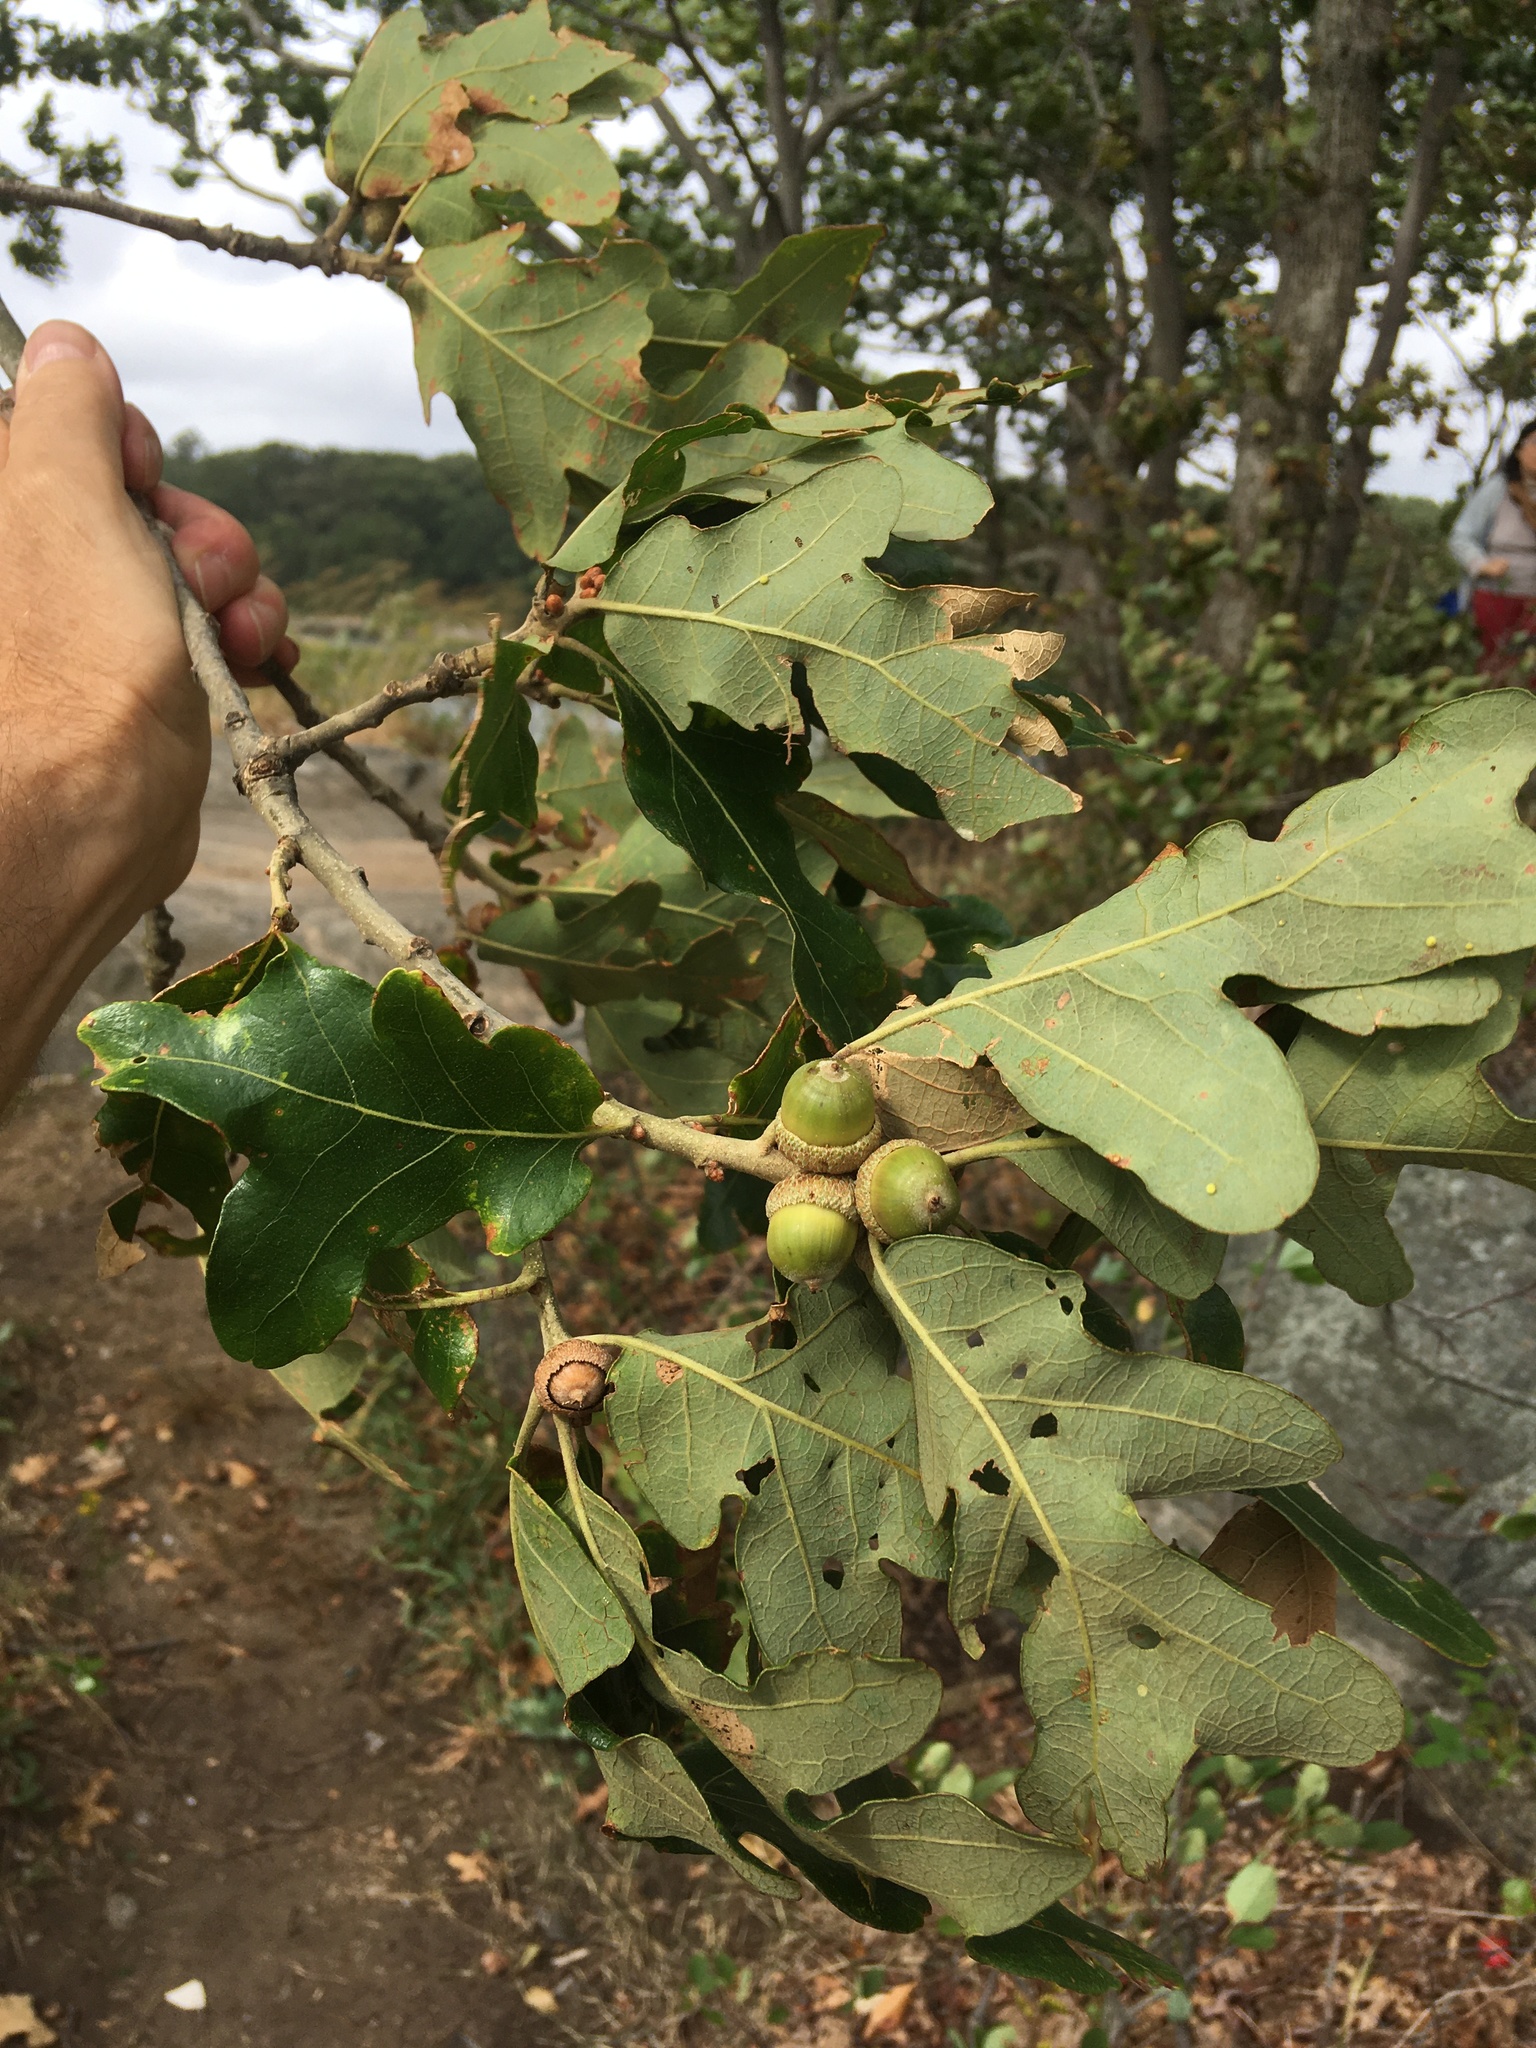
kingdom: Plantae
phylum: Tracheophyta
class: Magnoliopsida
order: Fagales
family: Fagaceae
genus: Quercus
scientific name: Quercus stellata
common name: Post oak
